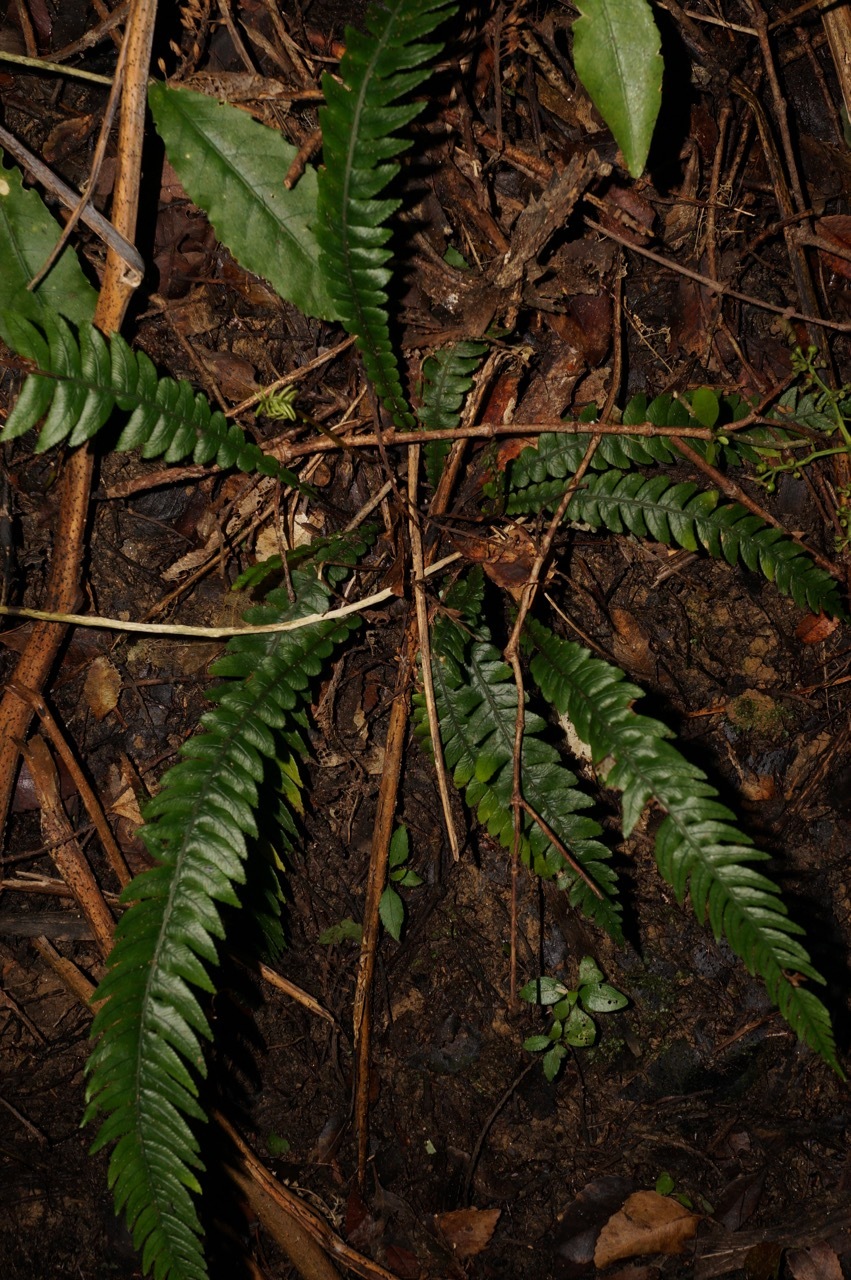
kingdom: Plantae
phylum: Tracheophyta
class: Polypodiopsida
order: Polypodiales
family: Blechnaceae
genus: Austroblechnum
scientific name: Austroblechnum lanceolatum
